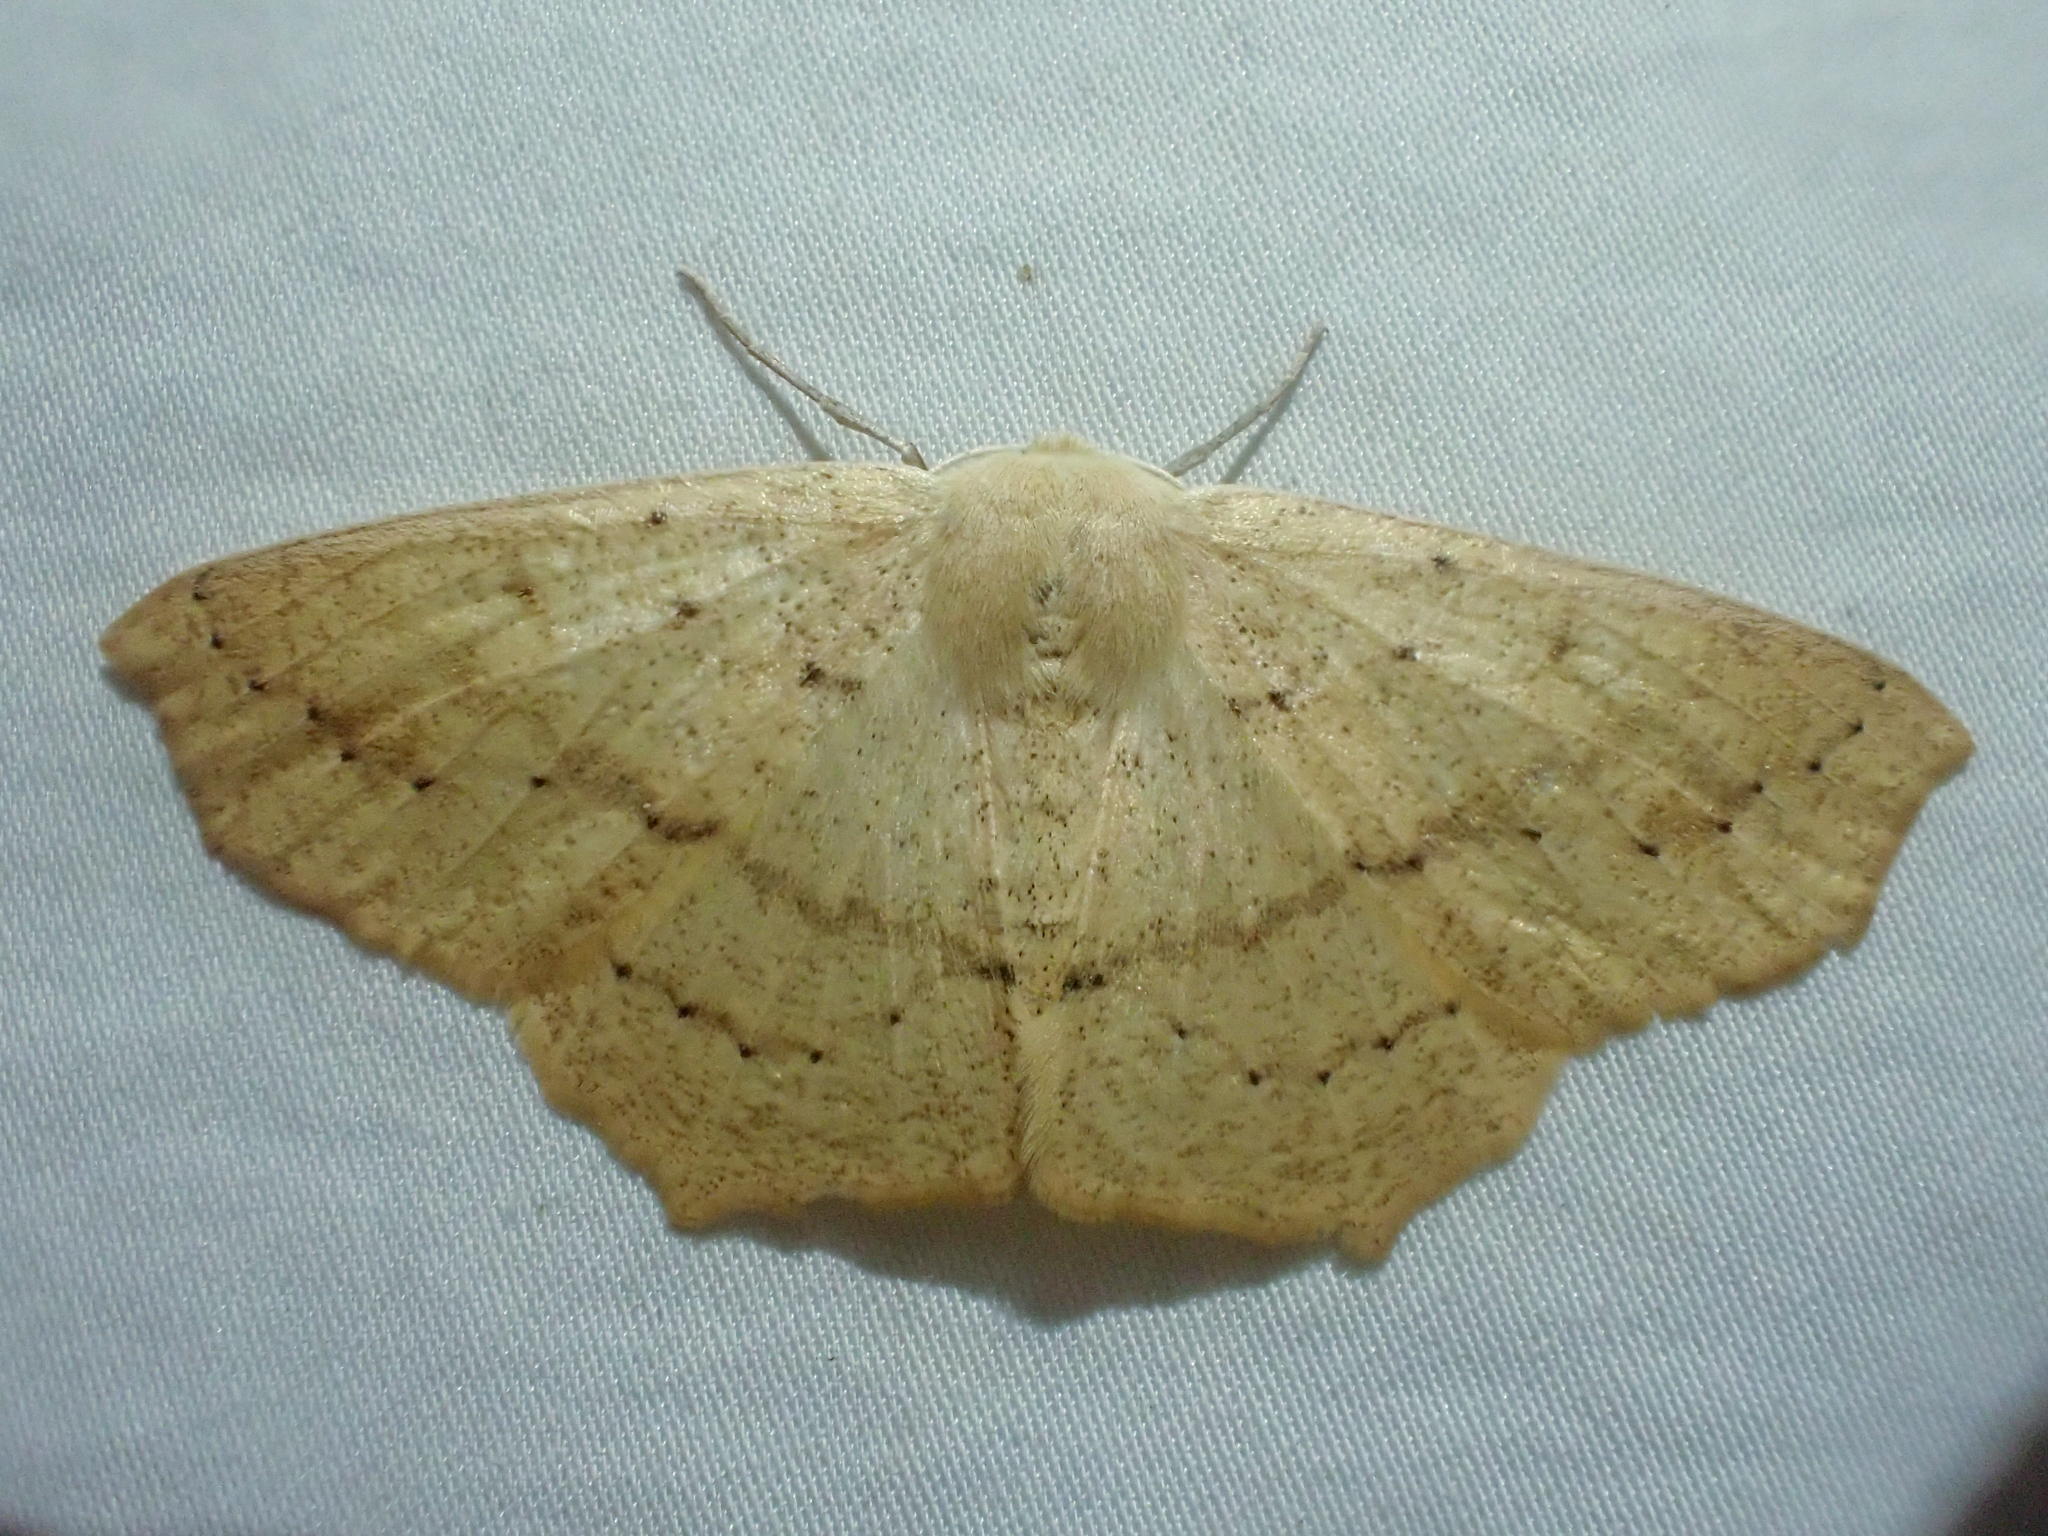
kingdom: Animalia
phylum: Arthropoda
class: Insecta
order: Lepidoptera
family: Geometridae
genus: Sabulodes
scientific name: Sabulodes aegrotata
